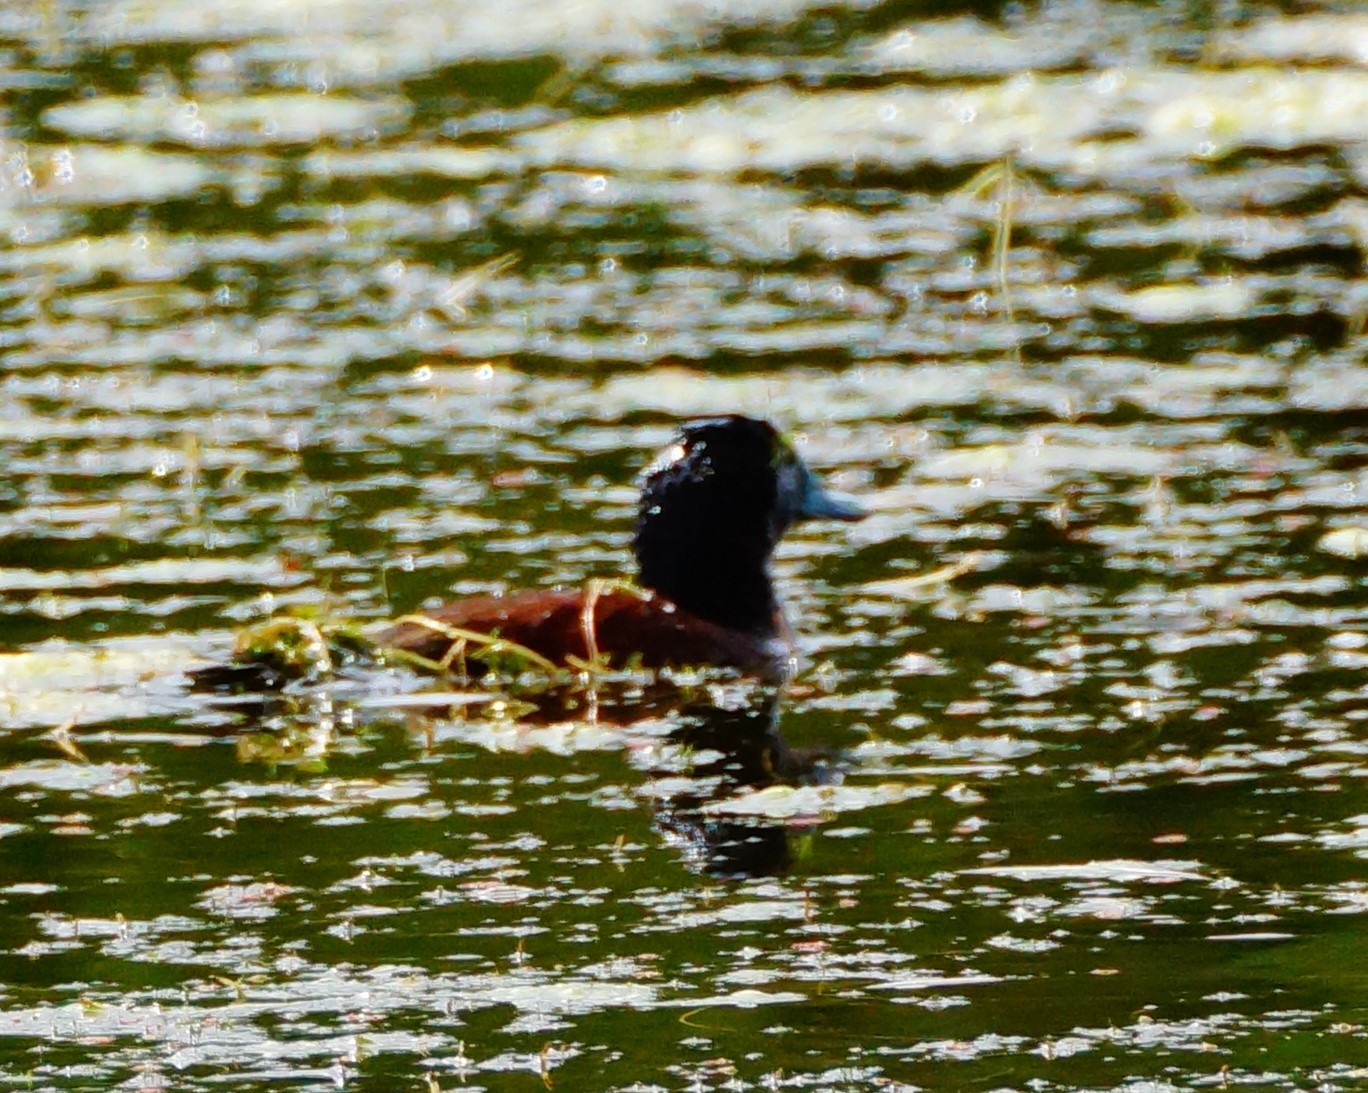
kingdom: Animalia
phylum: Chordata
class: Aves
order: Anseriformes
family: Anatidae
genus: Oxyura
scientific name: Oxyura australis
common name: Blue-billed duck
